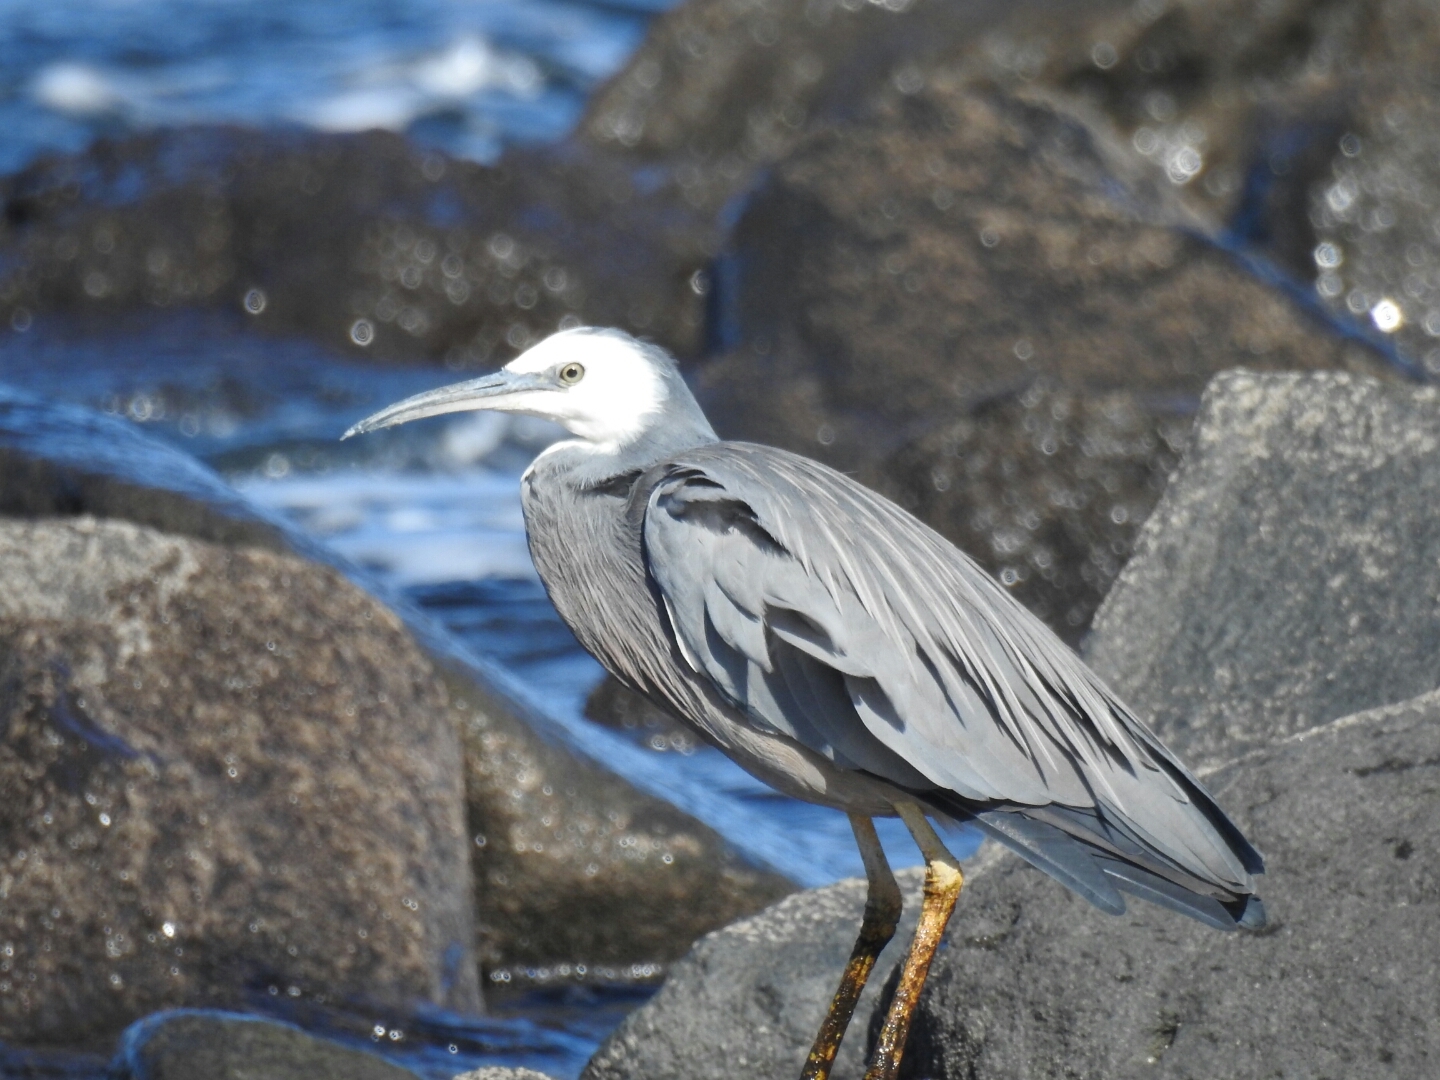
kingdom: Animalia
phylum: Chordata
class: Aves
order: Pelecaniformes
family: Ardeidae
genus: Egretta
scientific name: Egretta novaehollandiae
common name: White-faced heron
